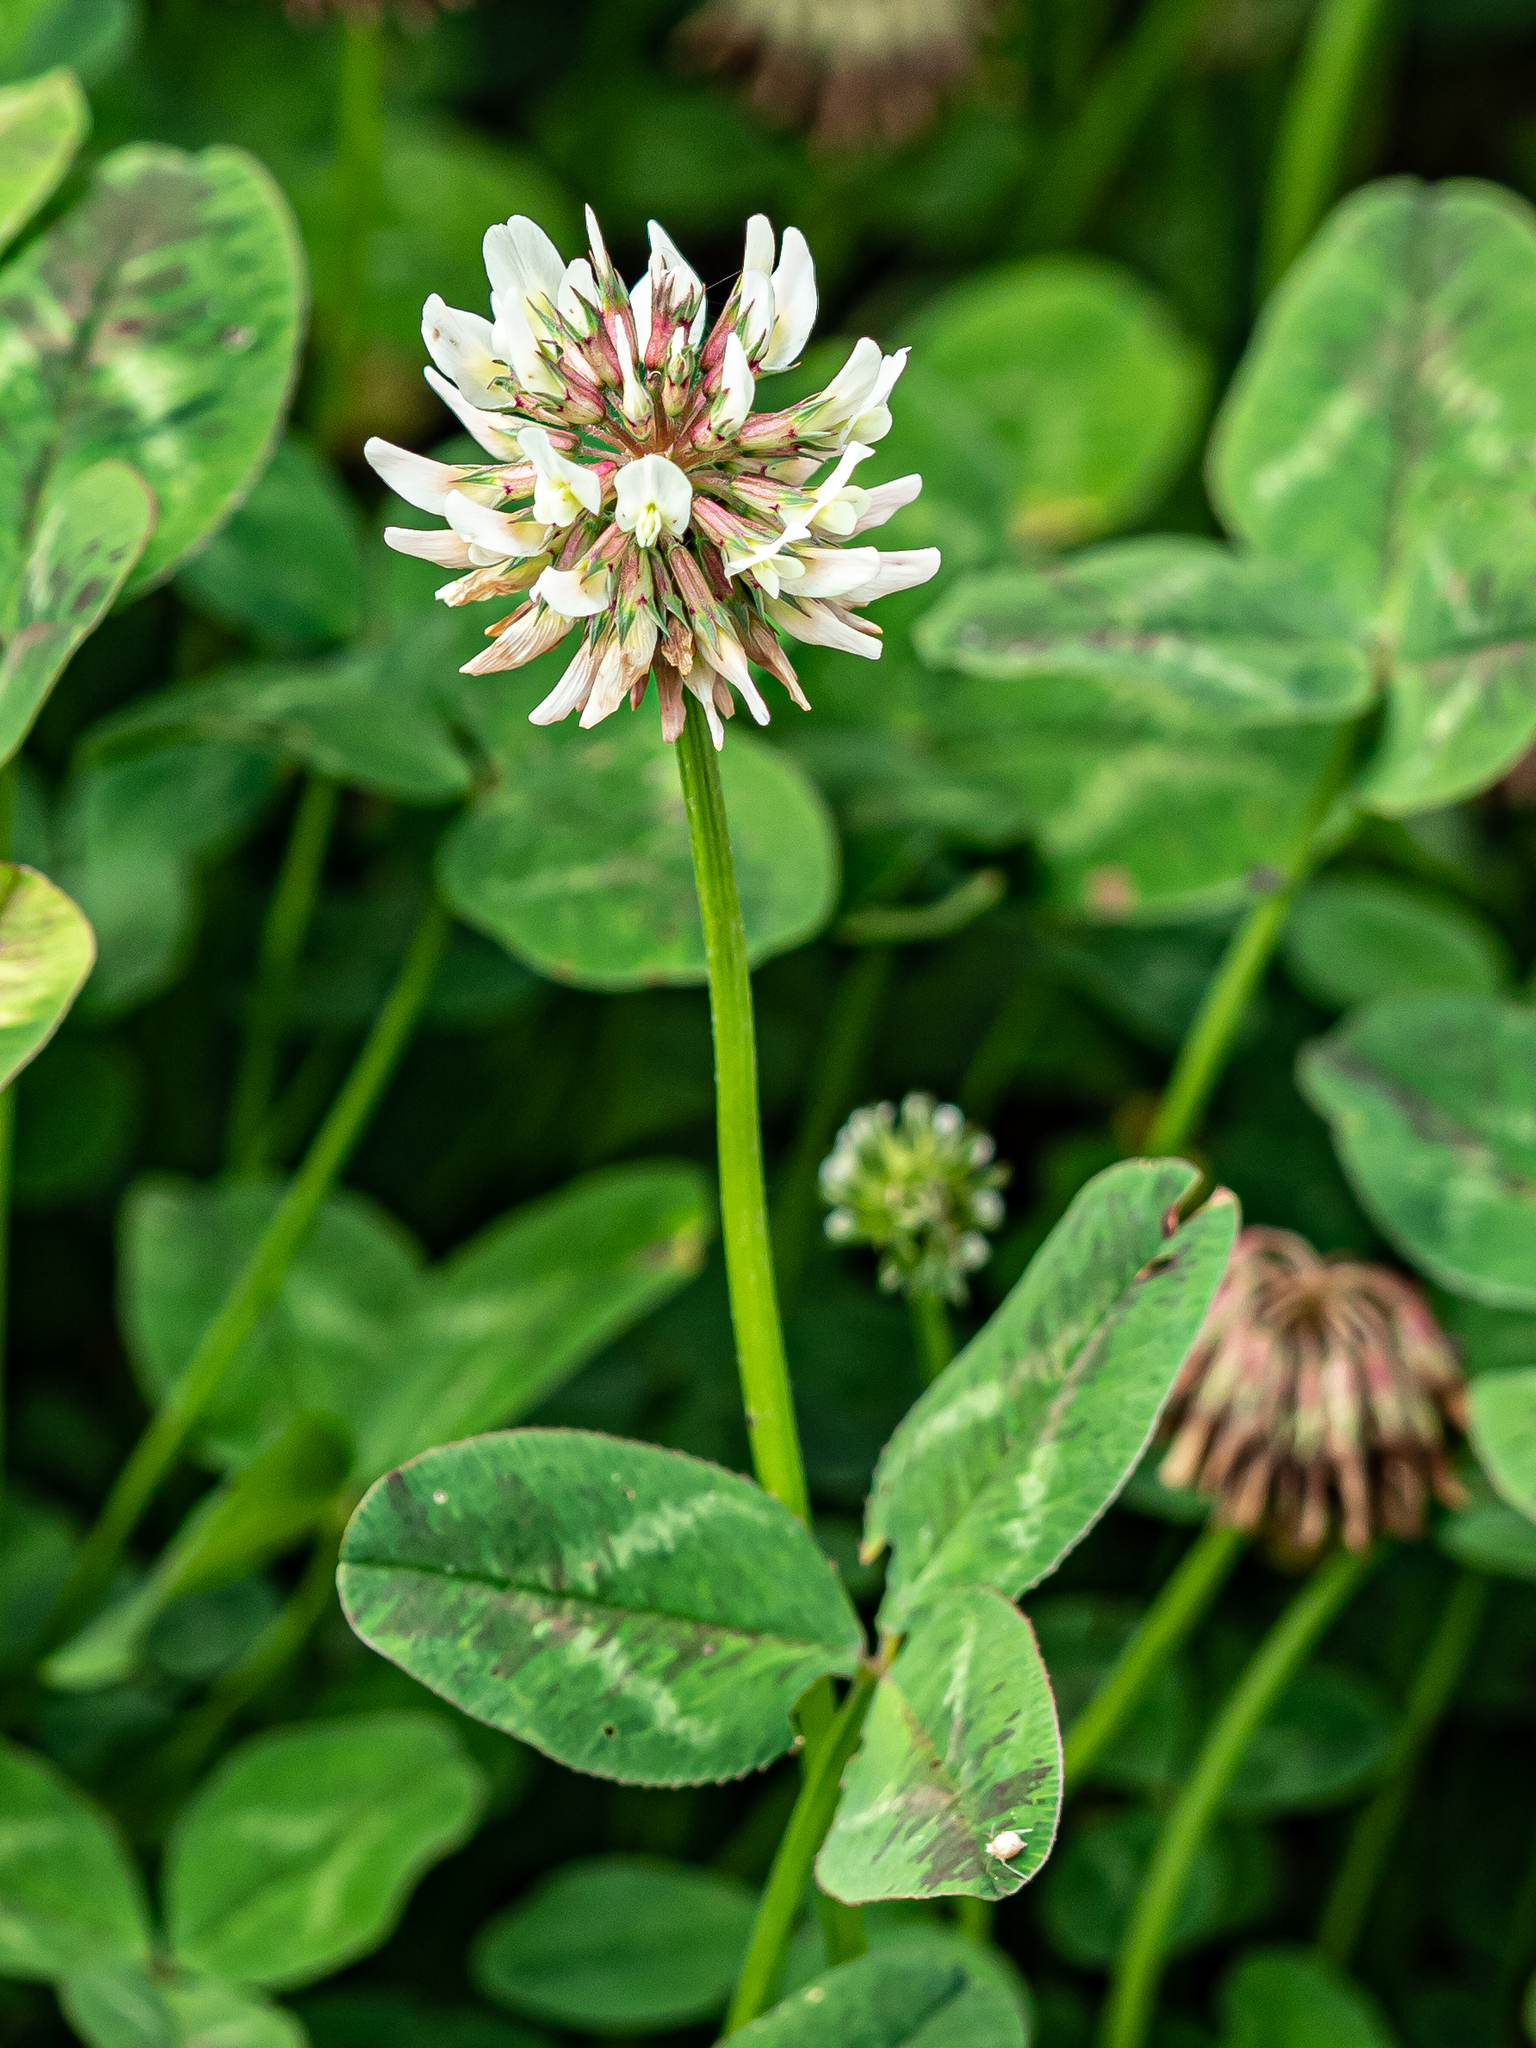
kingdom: Plantae
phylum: Tracheophyta
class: Magnoliopsida
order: Fabales
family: Fabaceae
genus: Trifolium
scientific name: Trifolium repens
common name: White clover
